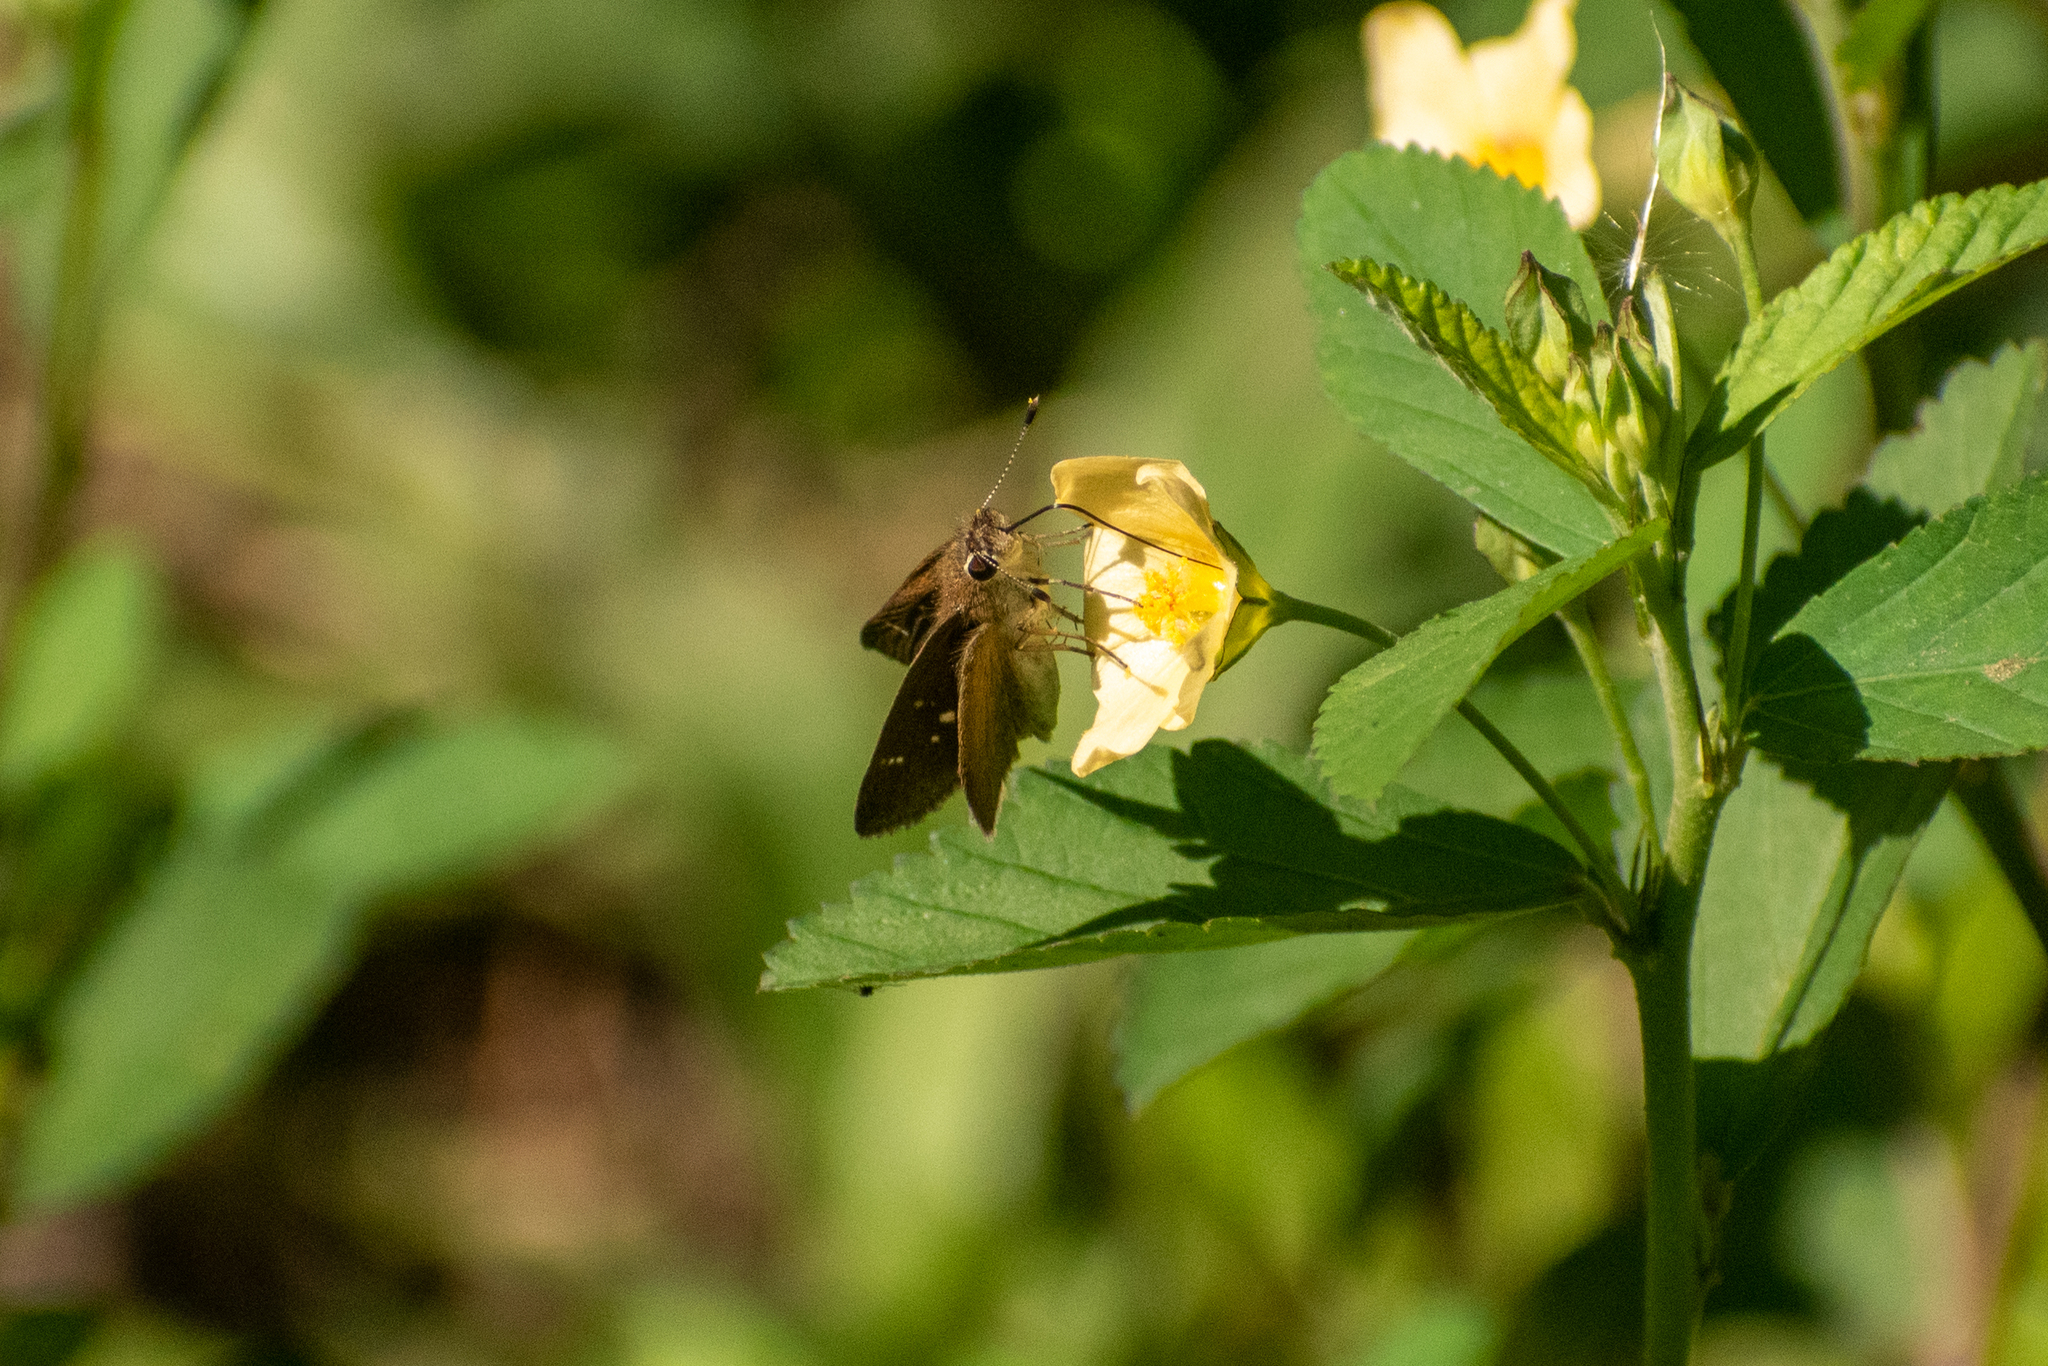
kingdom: Animalia
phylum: Arthropoda
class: Insecta
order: Lepidoptera
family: Hesperiidae
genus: Lerodea
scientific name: Lerodea eufala
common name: Eufala skipper
